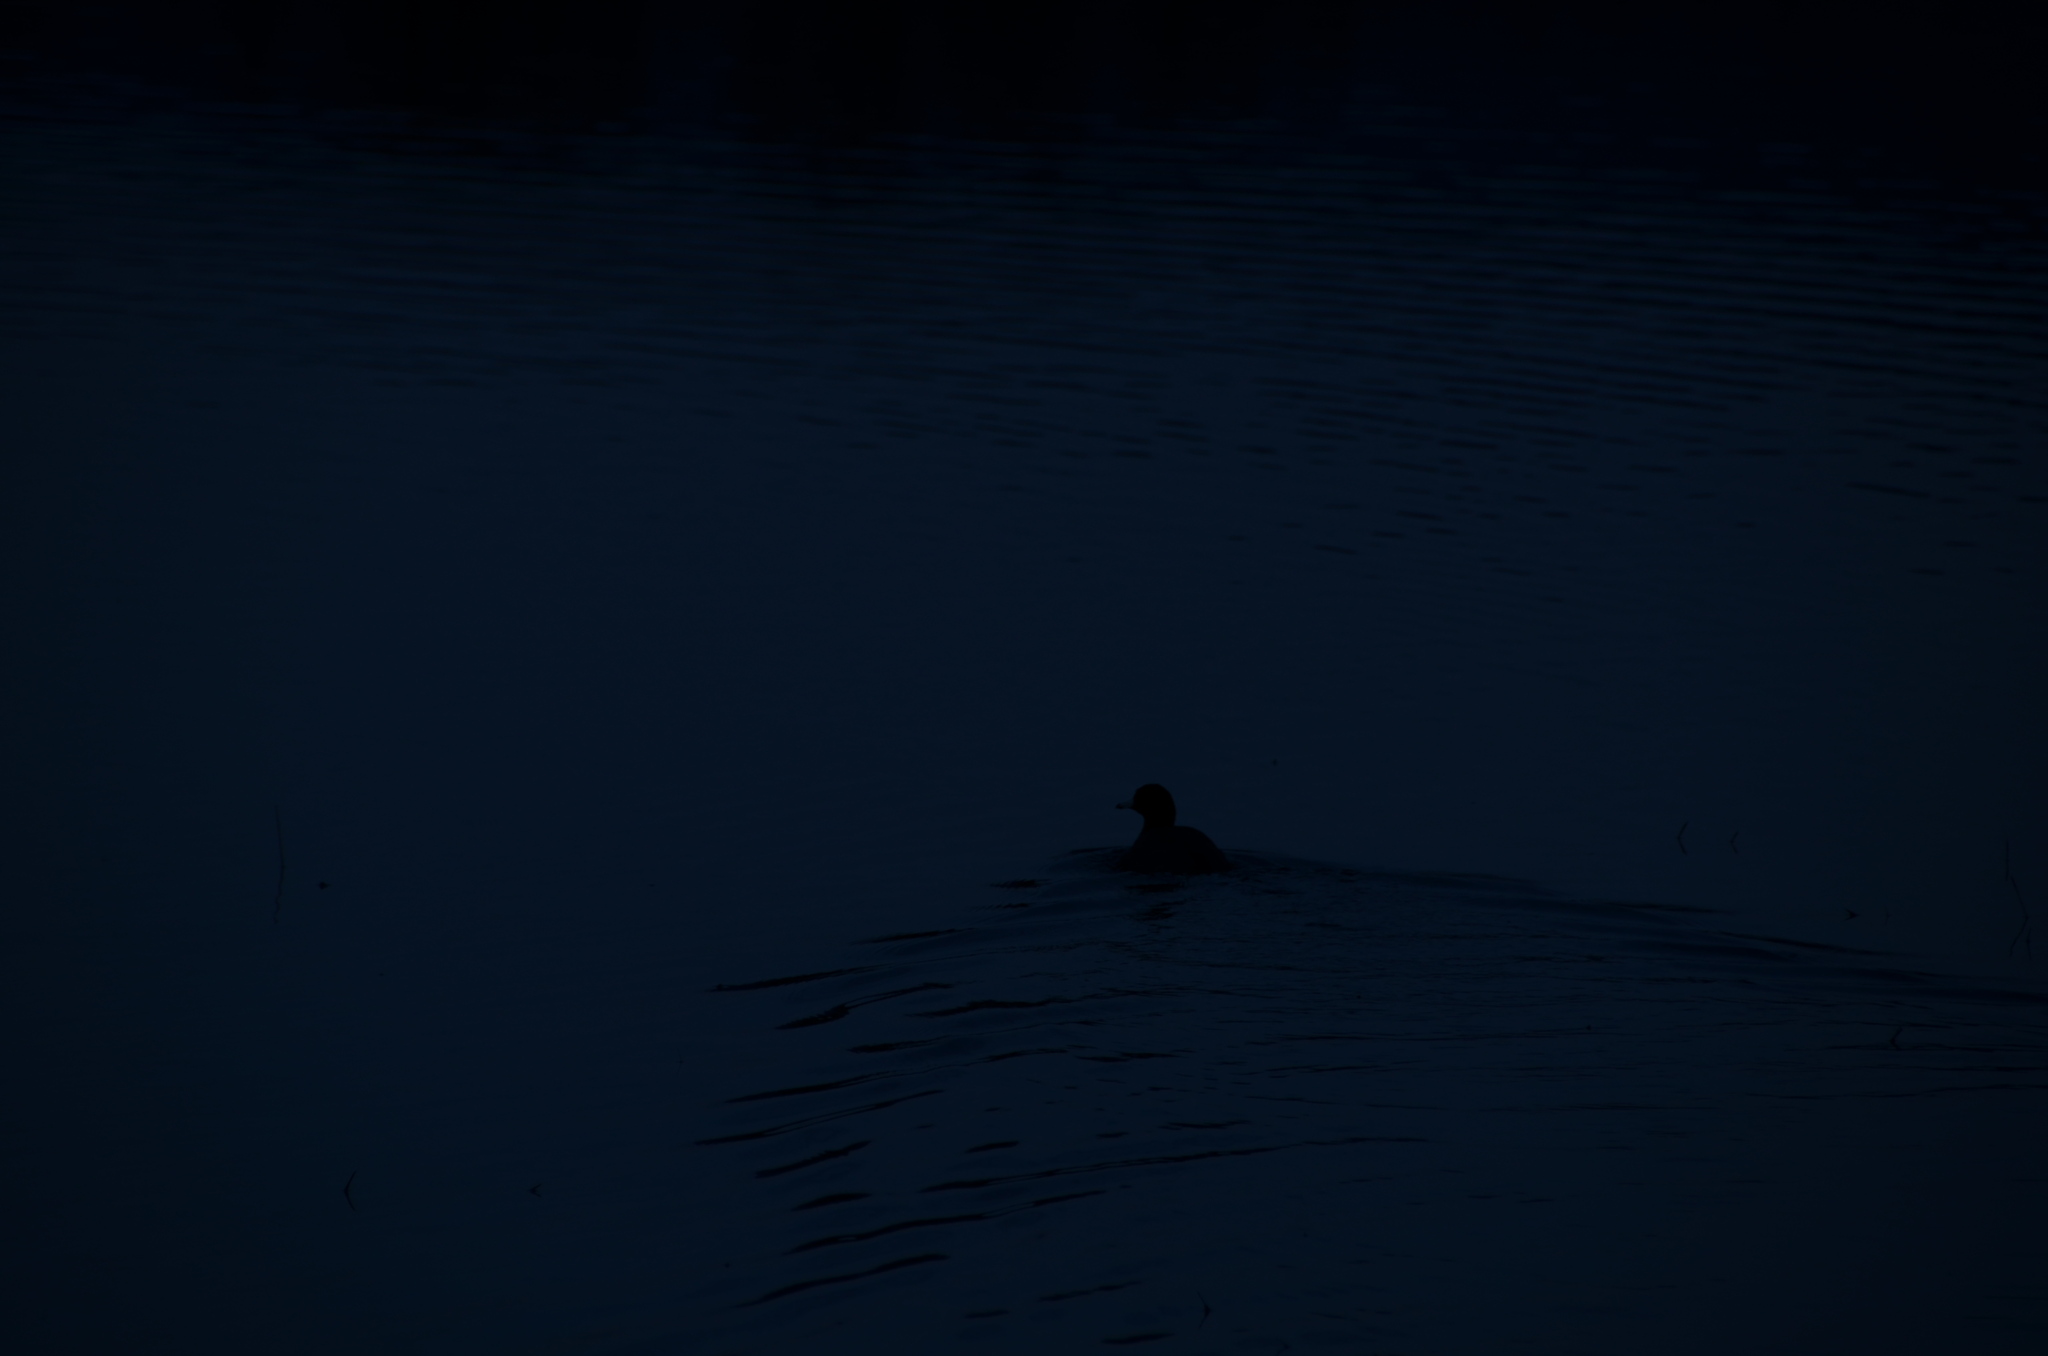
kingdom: Animalia
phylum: Chordata
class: Aves
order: Gruiformes
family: Rallidae
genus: Fulica
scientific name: Fulica americana
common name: American coot
